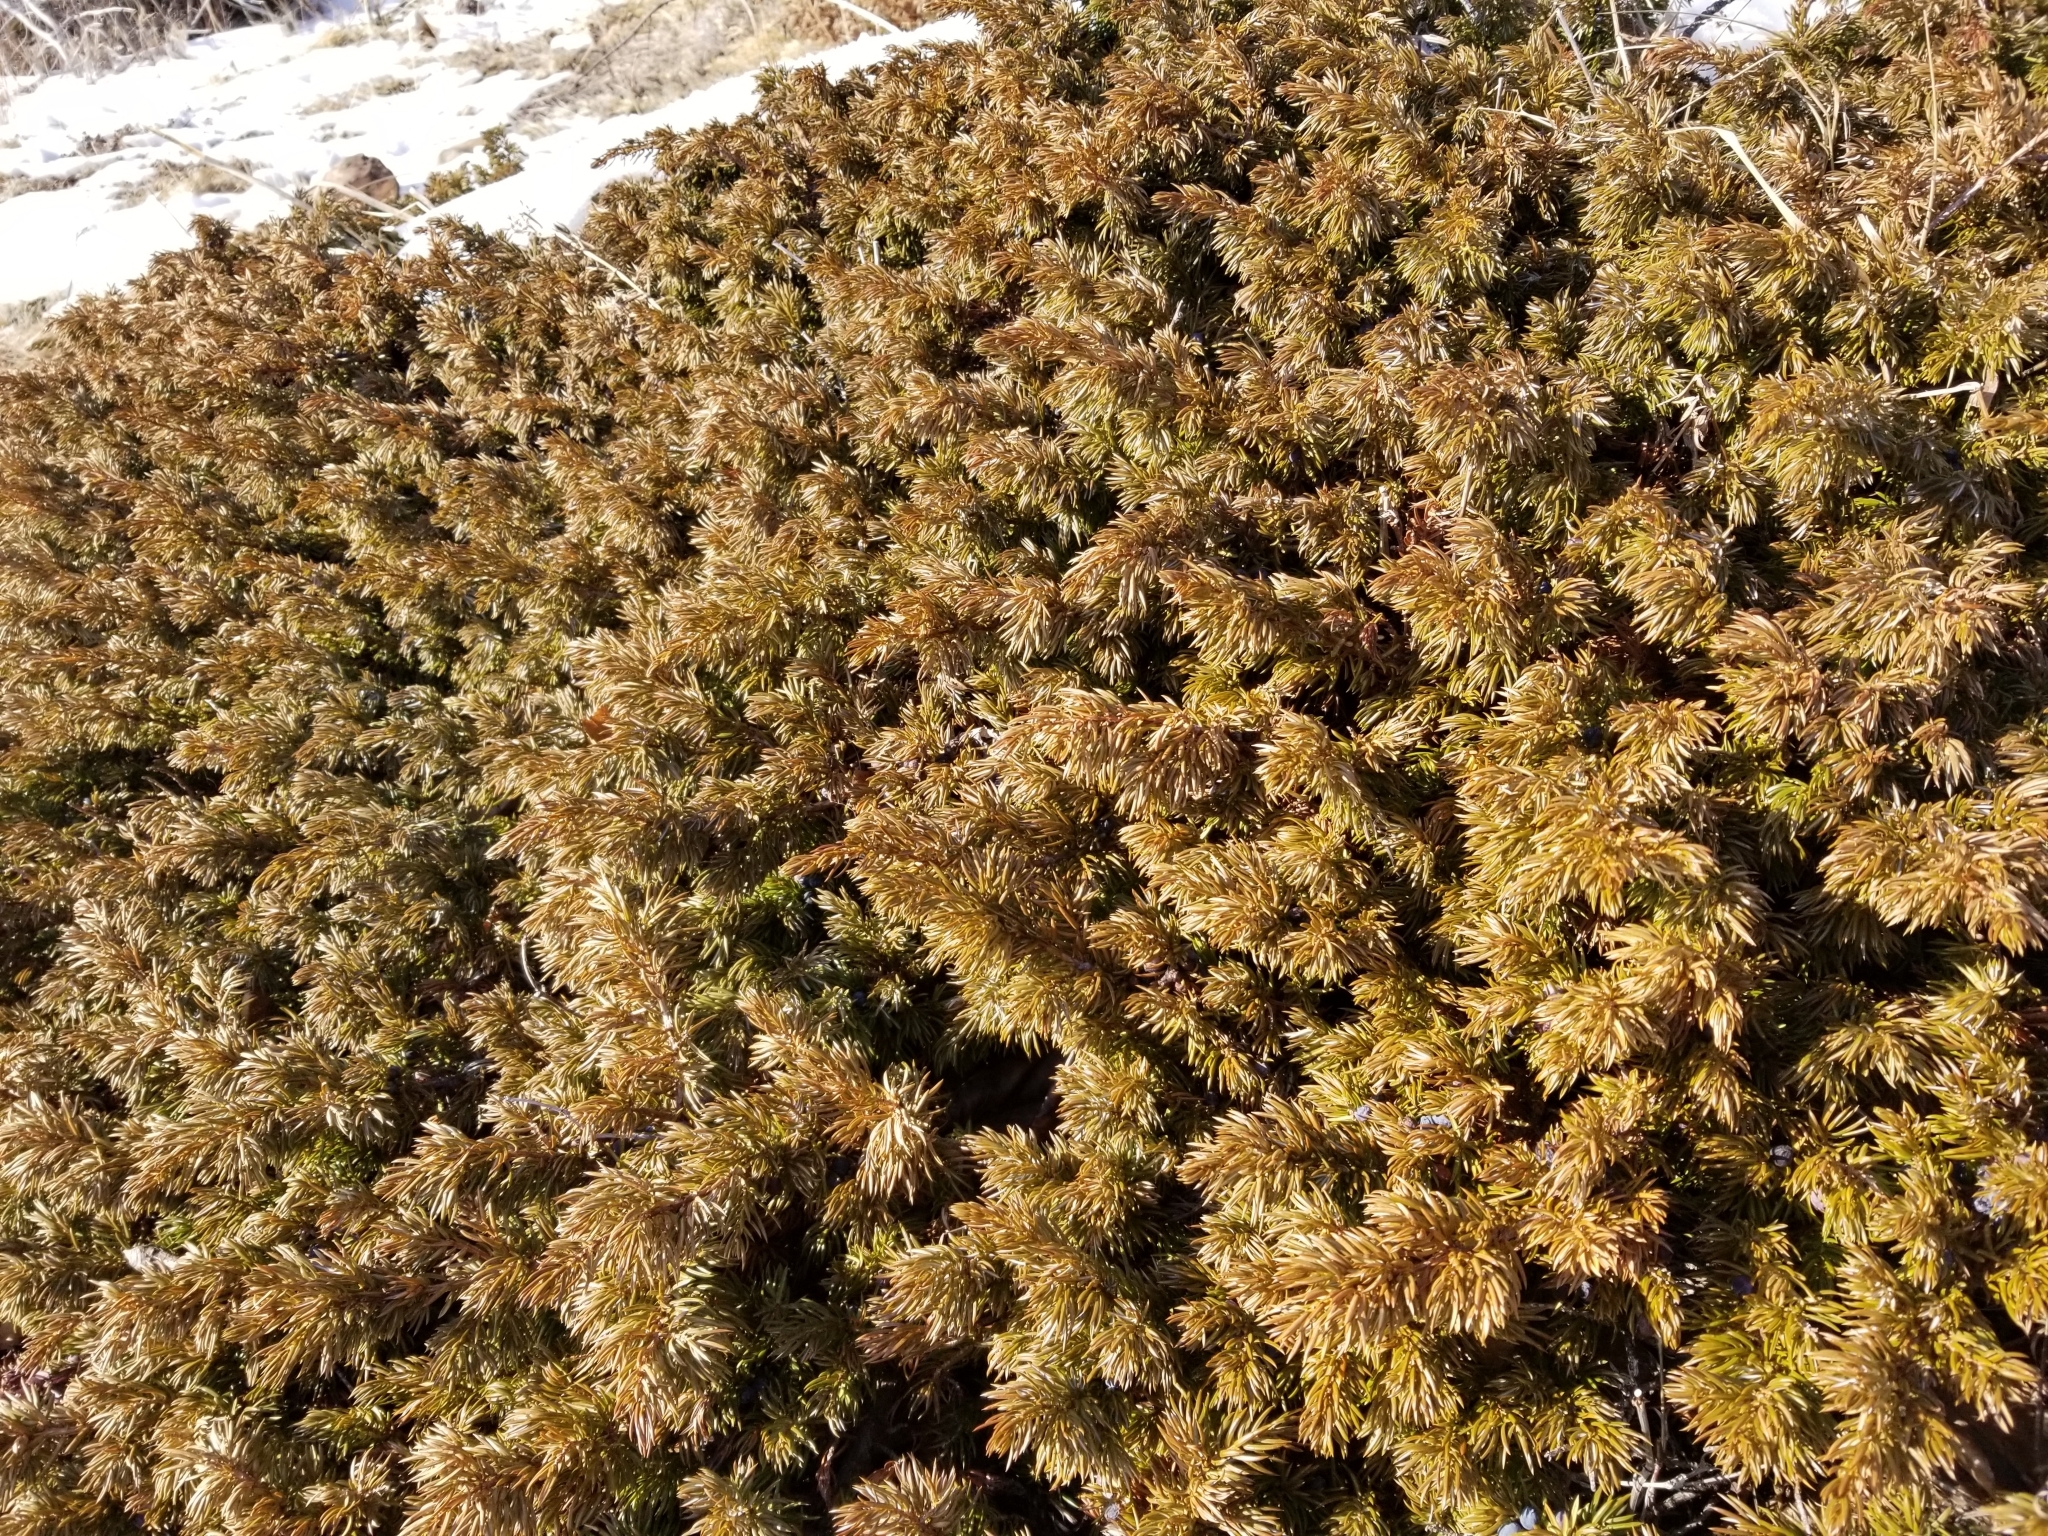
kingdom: Plantae
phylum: Tracheophyta
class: Pinopsida
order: Pinales
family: Cupressaceae
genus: Juniperus
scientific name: Juniperus communis
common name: Common juniper
